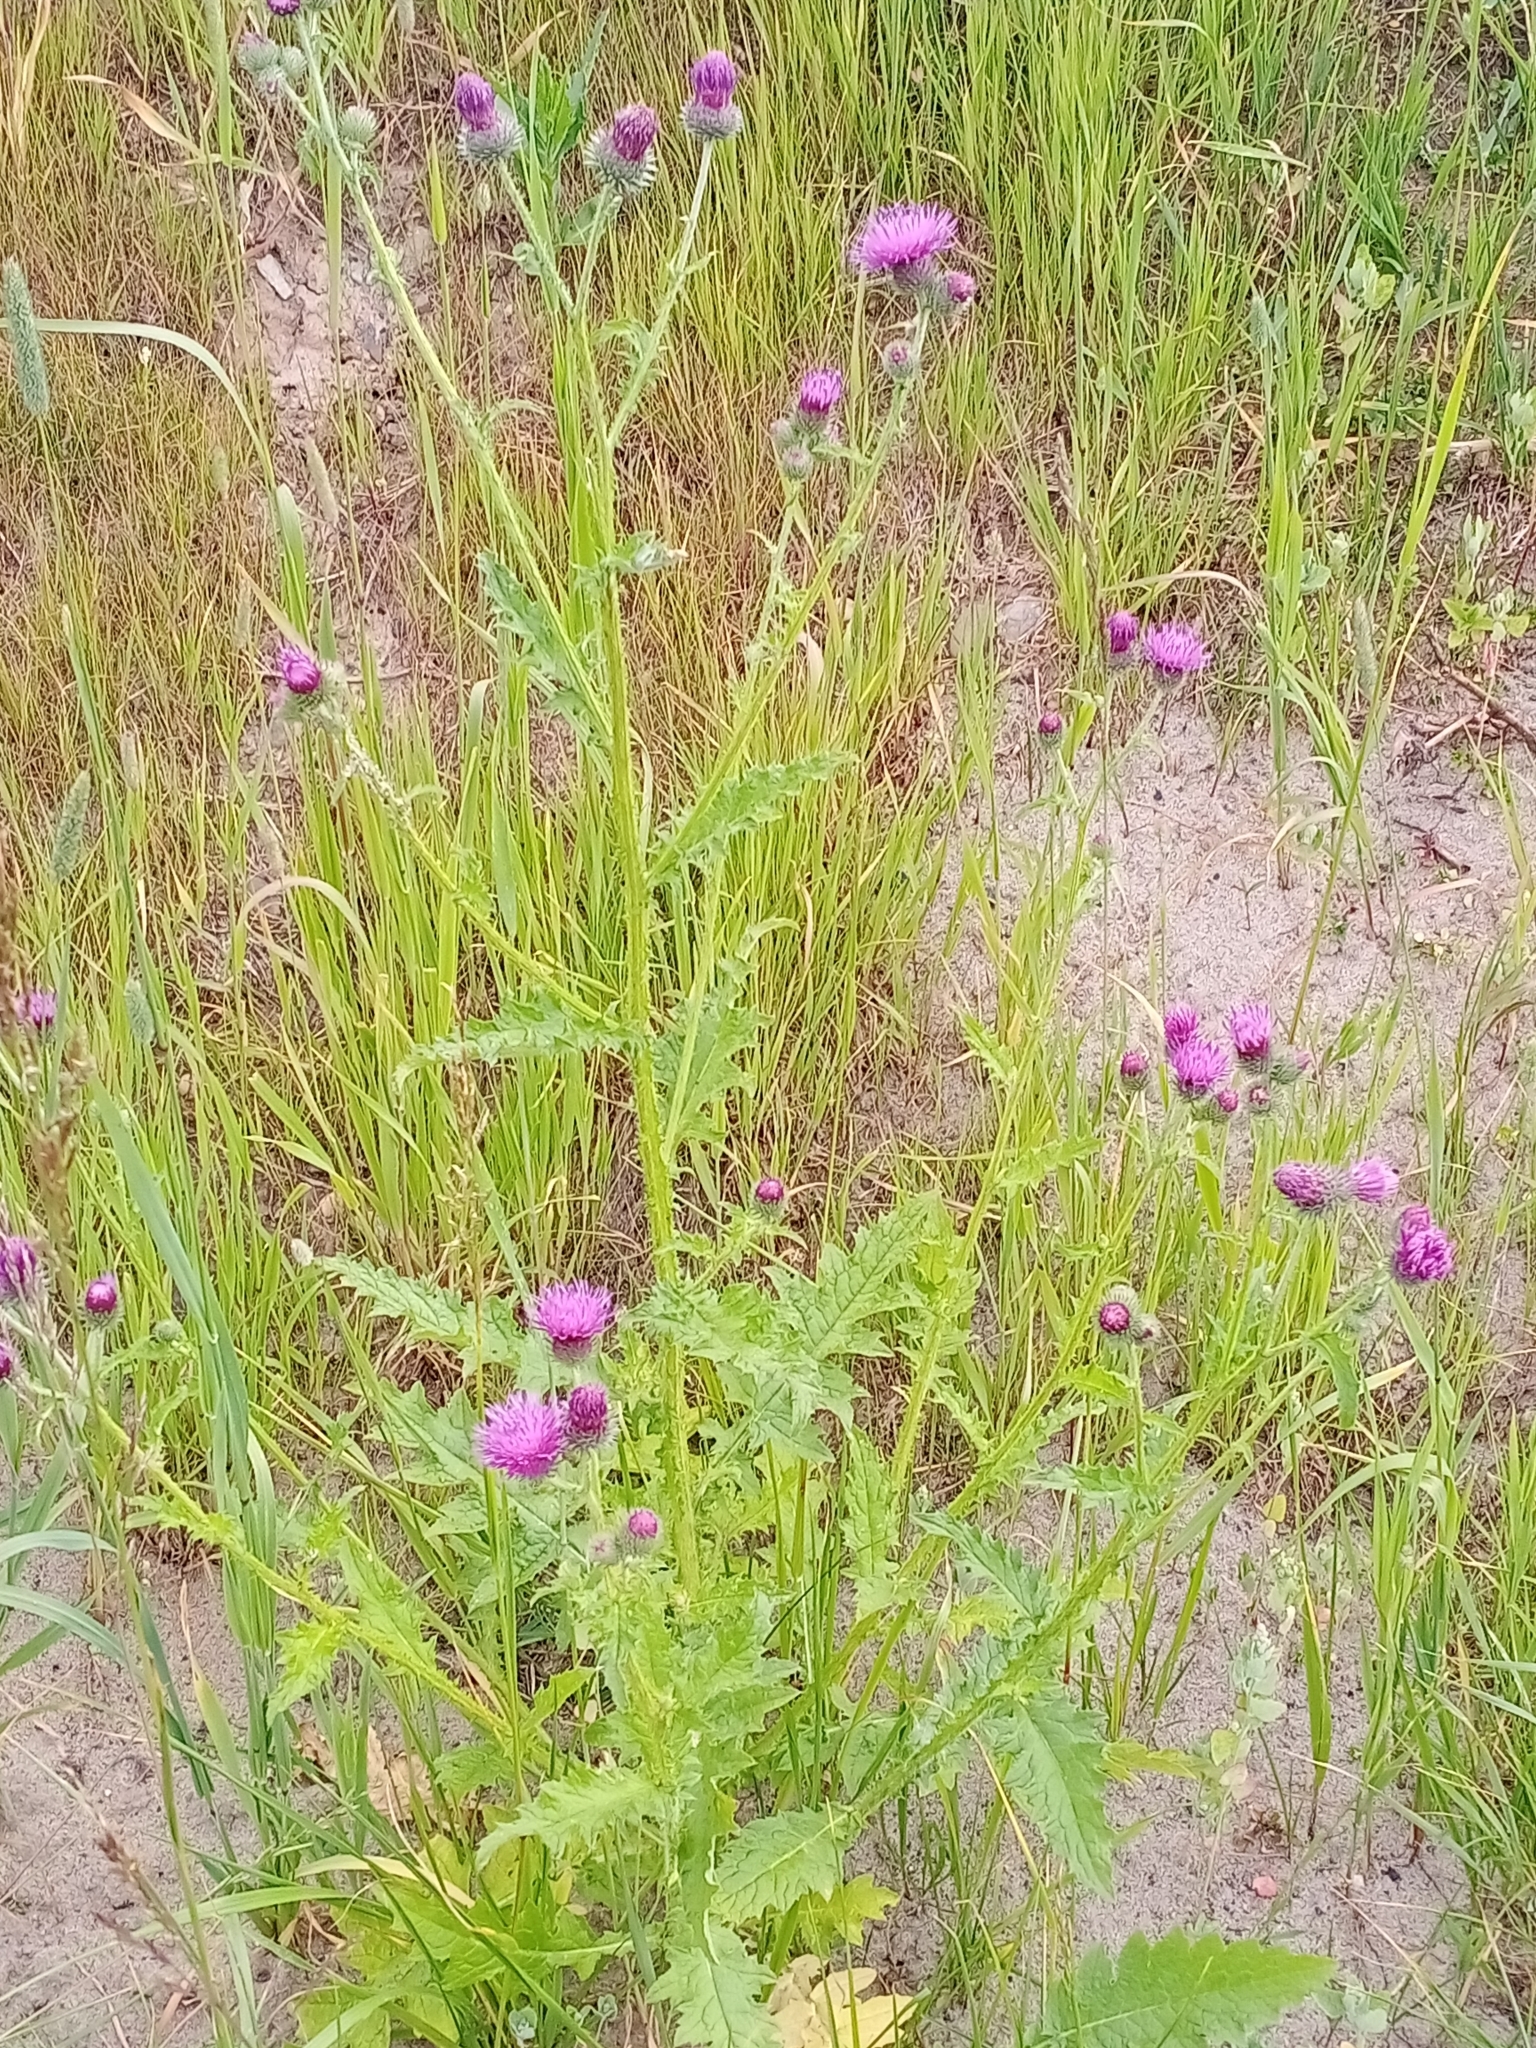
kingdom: Plantae
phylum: Tracheophyta
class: Magnoliopsida
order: Asterales
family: Asteraceae
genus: Carduus
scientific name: Carduus crispus
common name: Welted thistle
